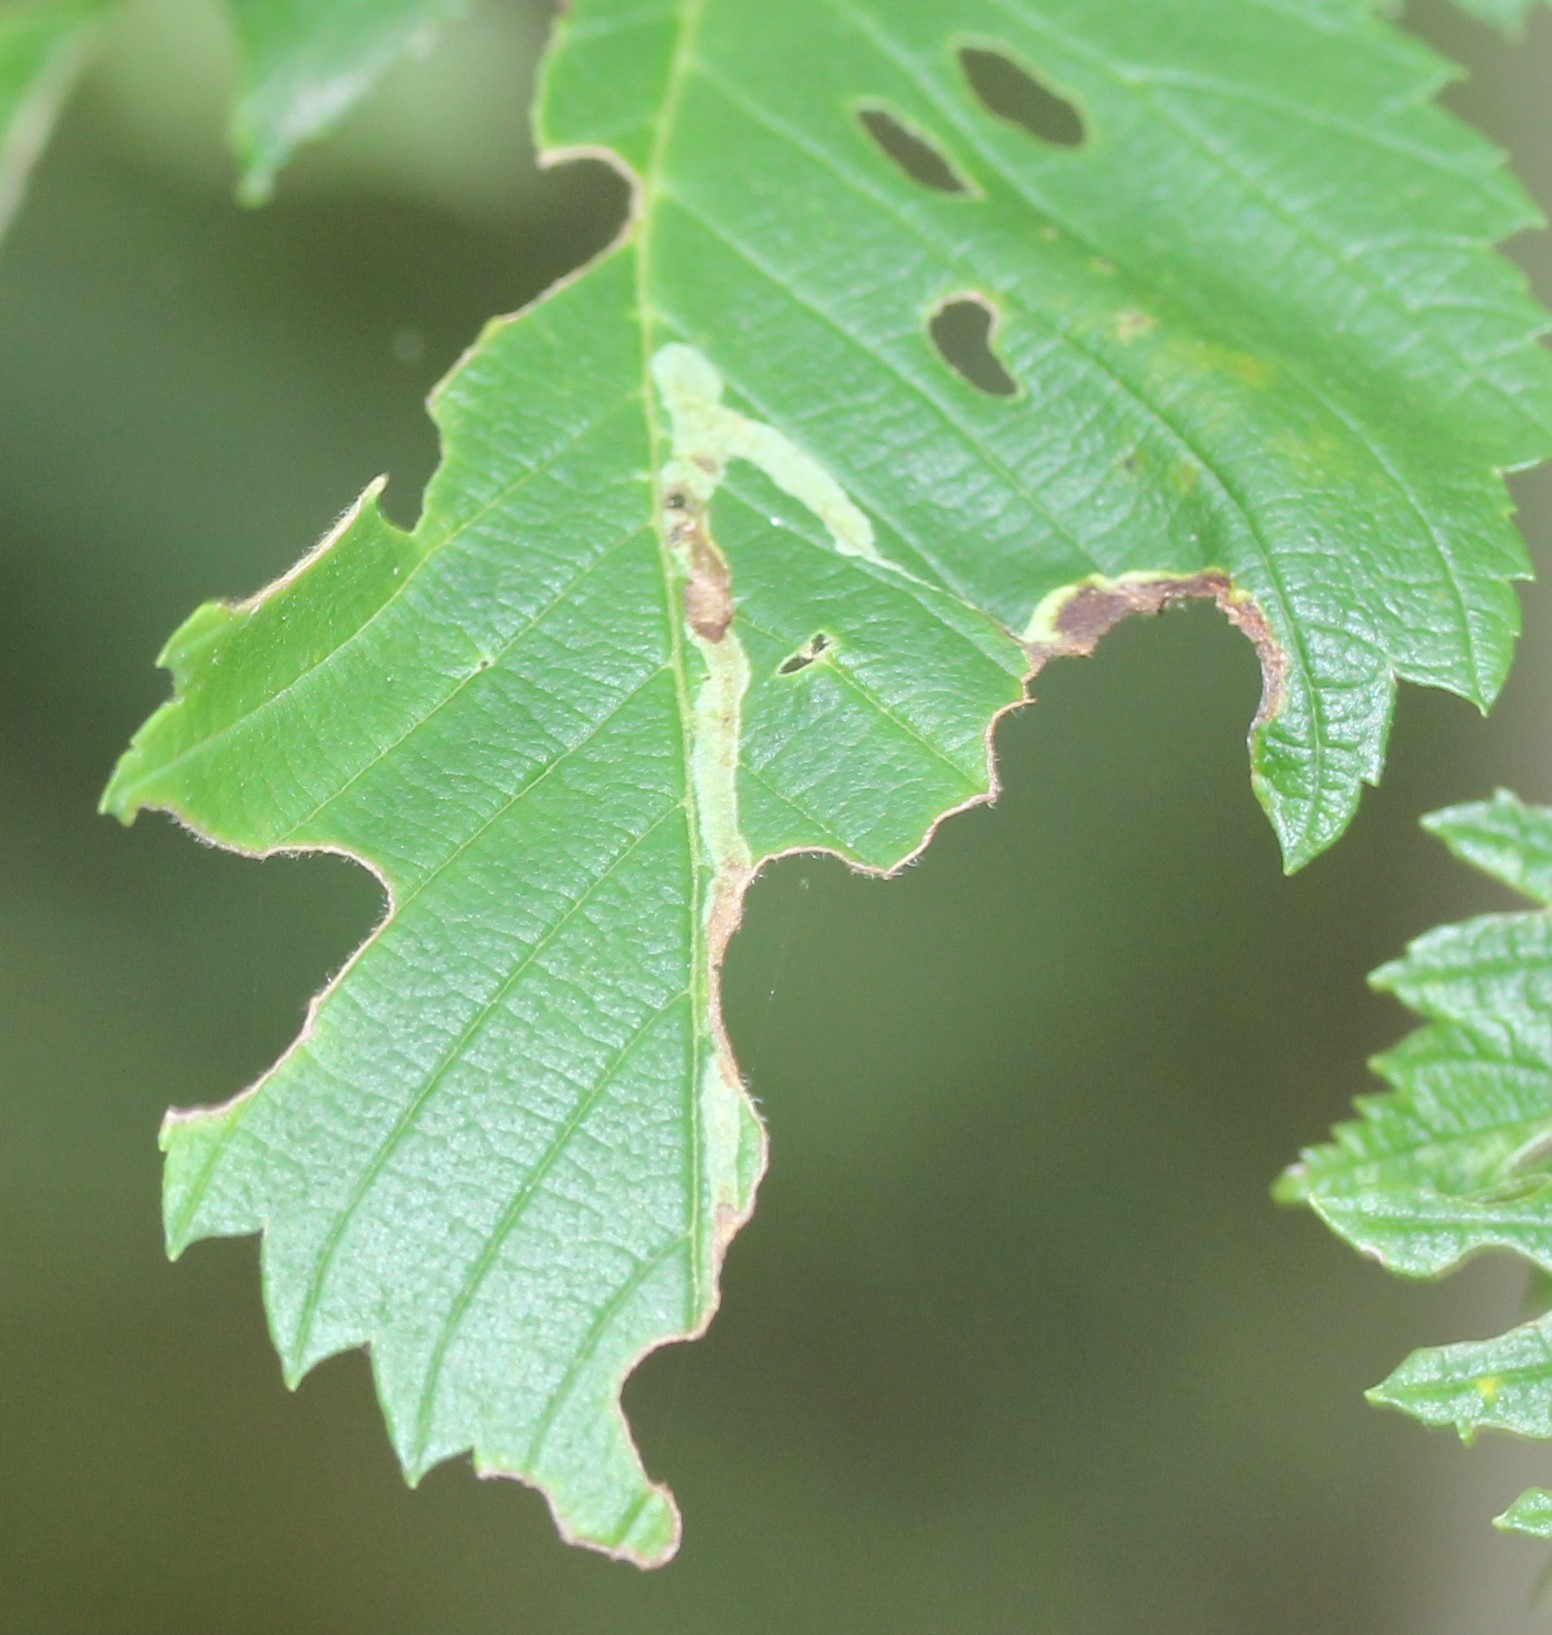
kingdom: Animalia
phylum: Arthropoda
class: Insecta
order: Diptera
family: Agromyzidae
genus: Agromyza
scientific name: Agromyza aristata
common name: Elm agromyzid leafminer
